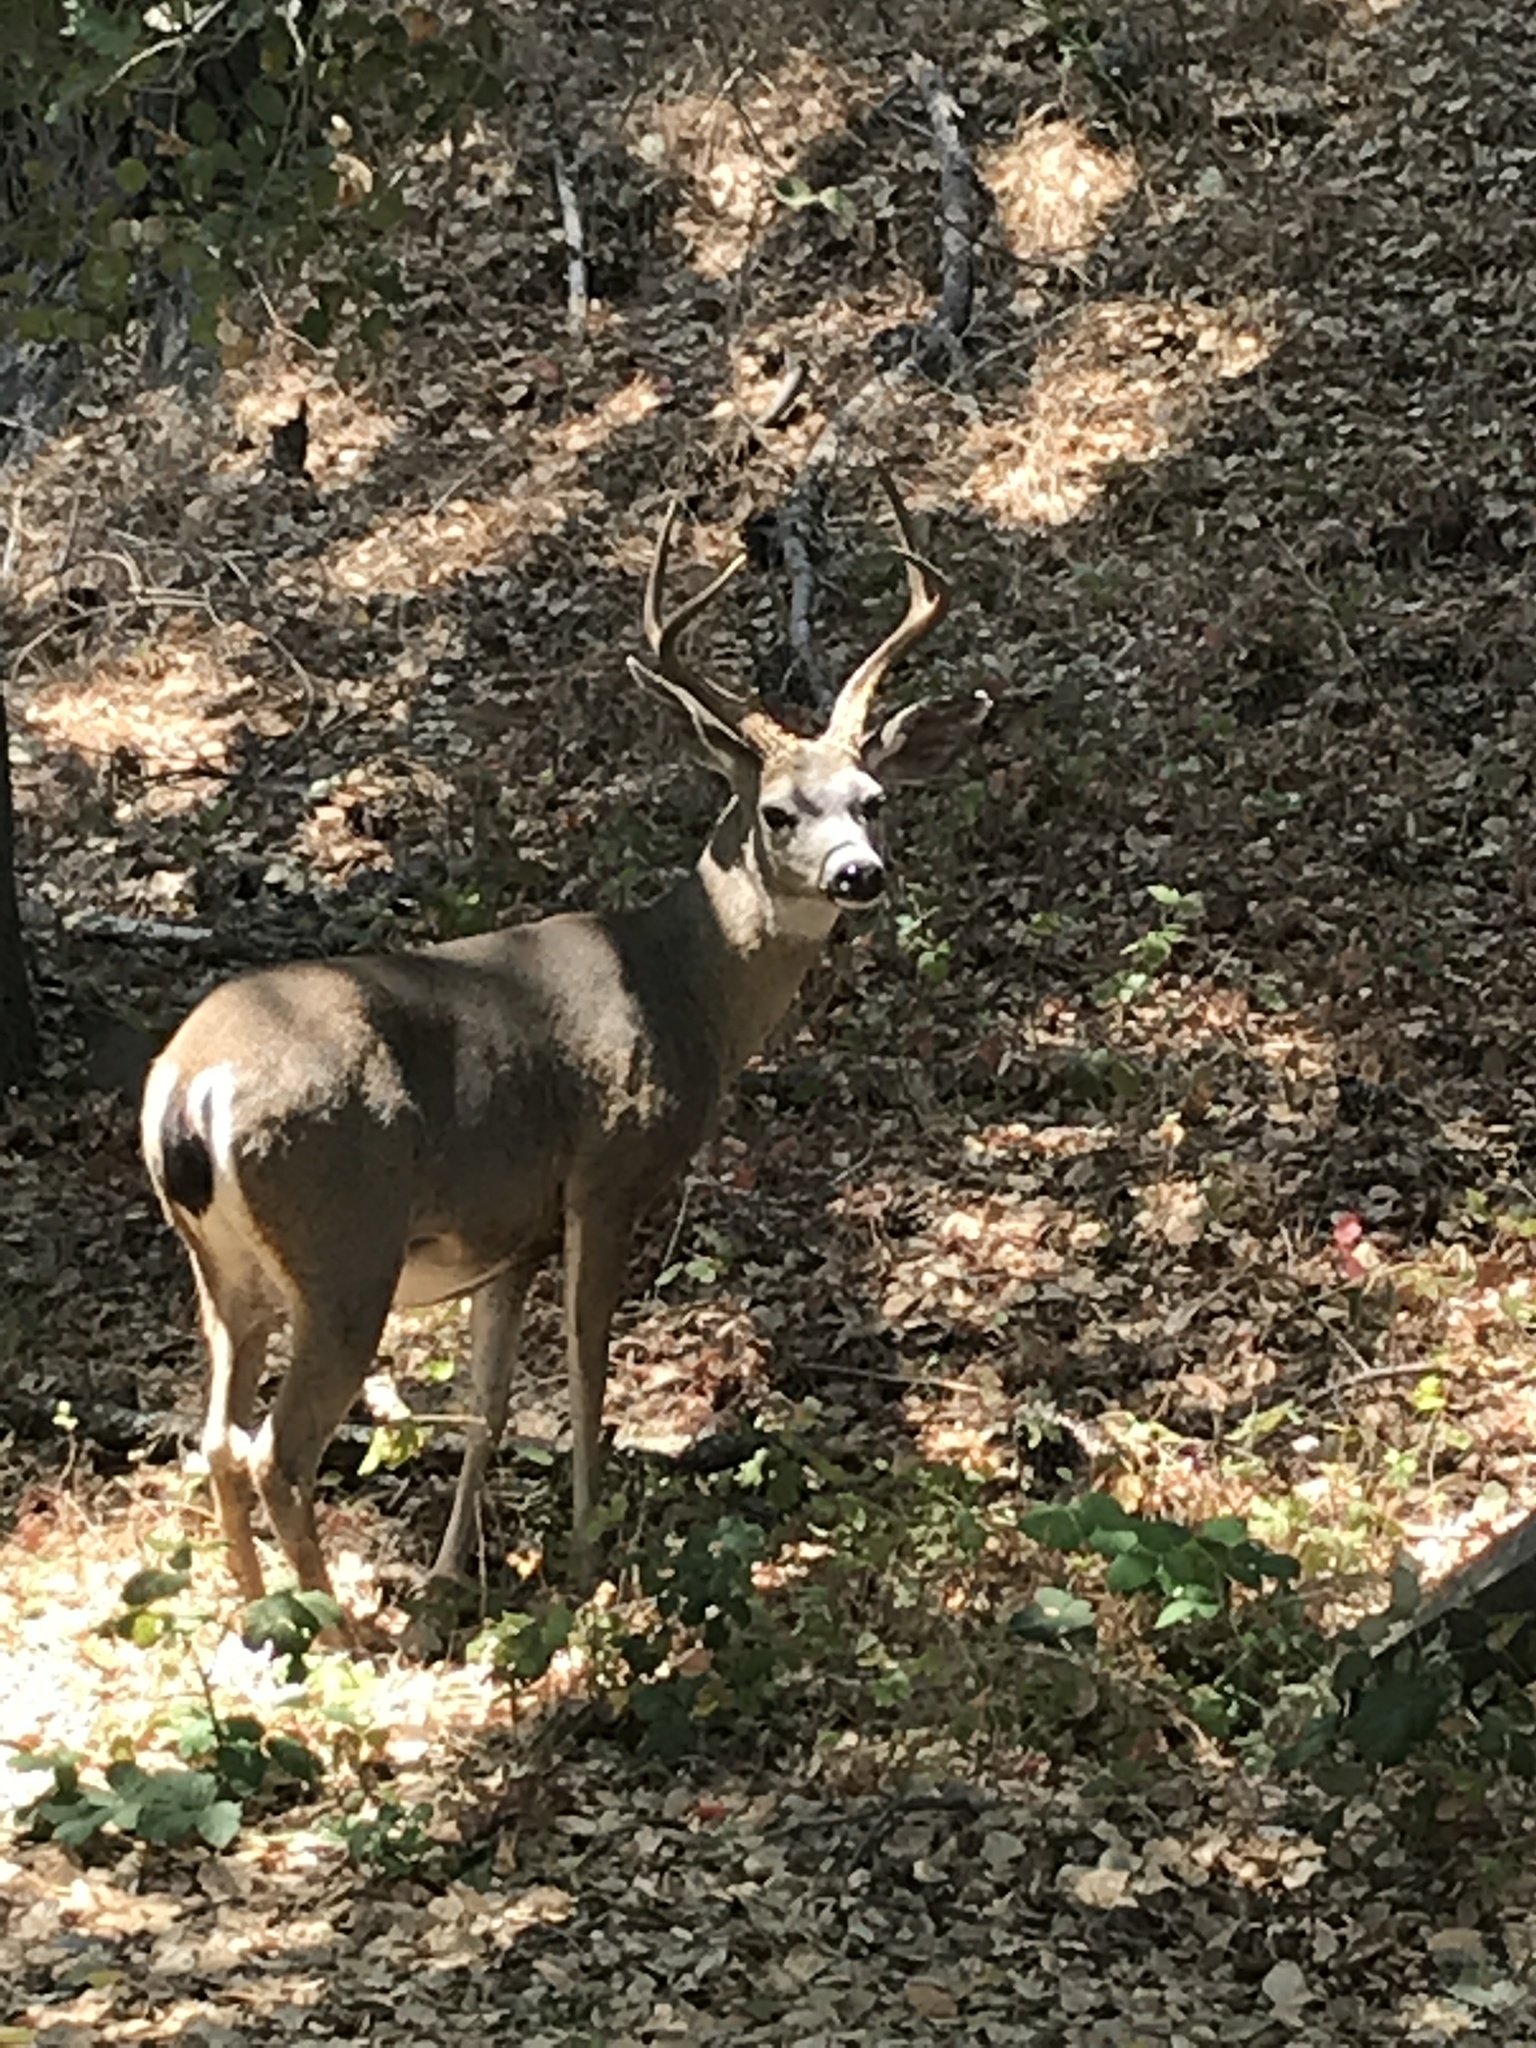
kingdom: Animalia
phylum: Chordata
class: Mammalia
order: Artiodactyla
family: Cervidae
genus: Odocoileus
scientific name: Odocoileus hemionus
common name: Mule deer
